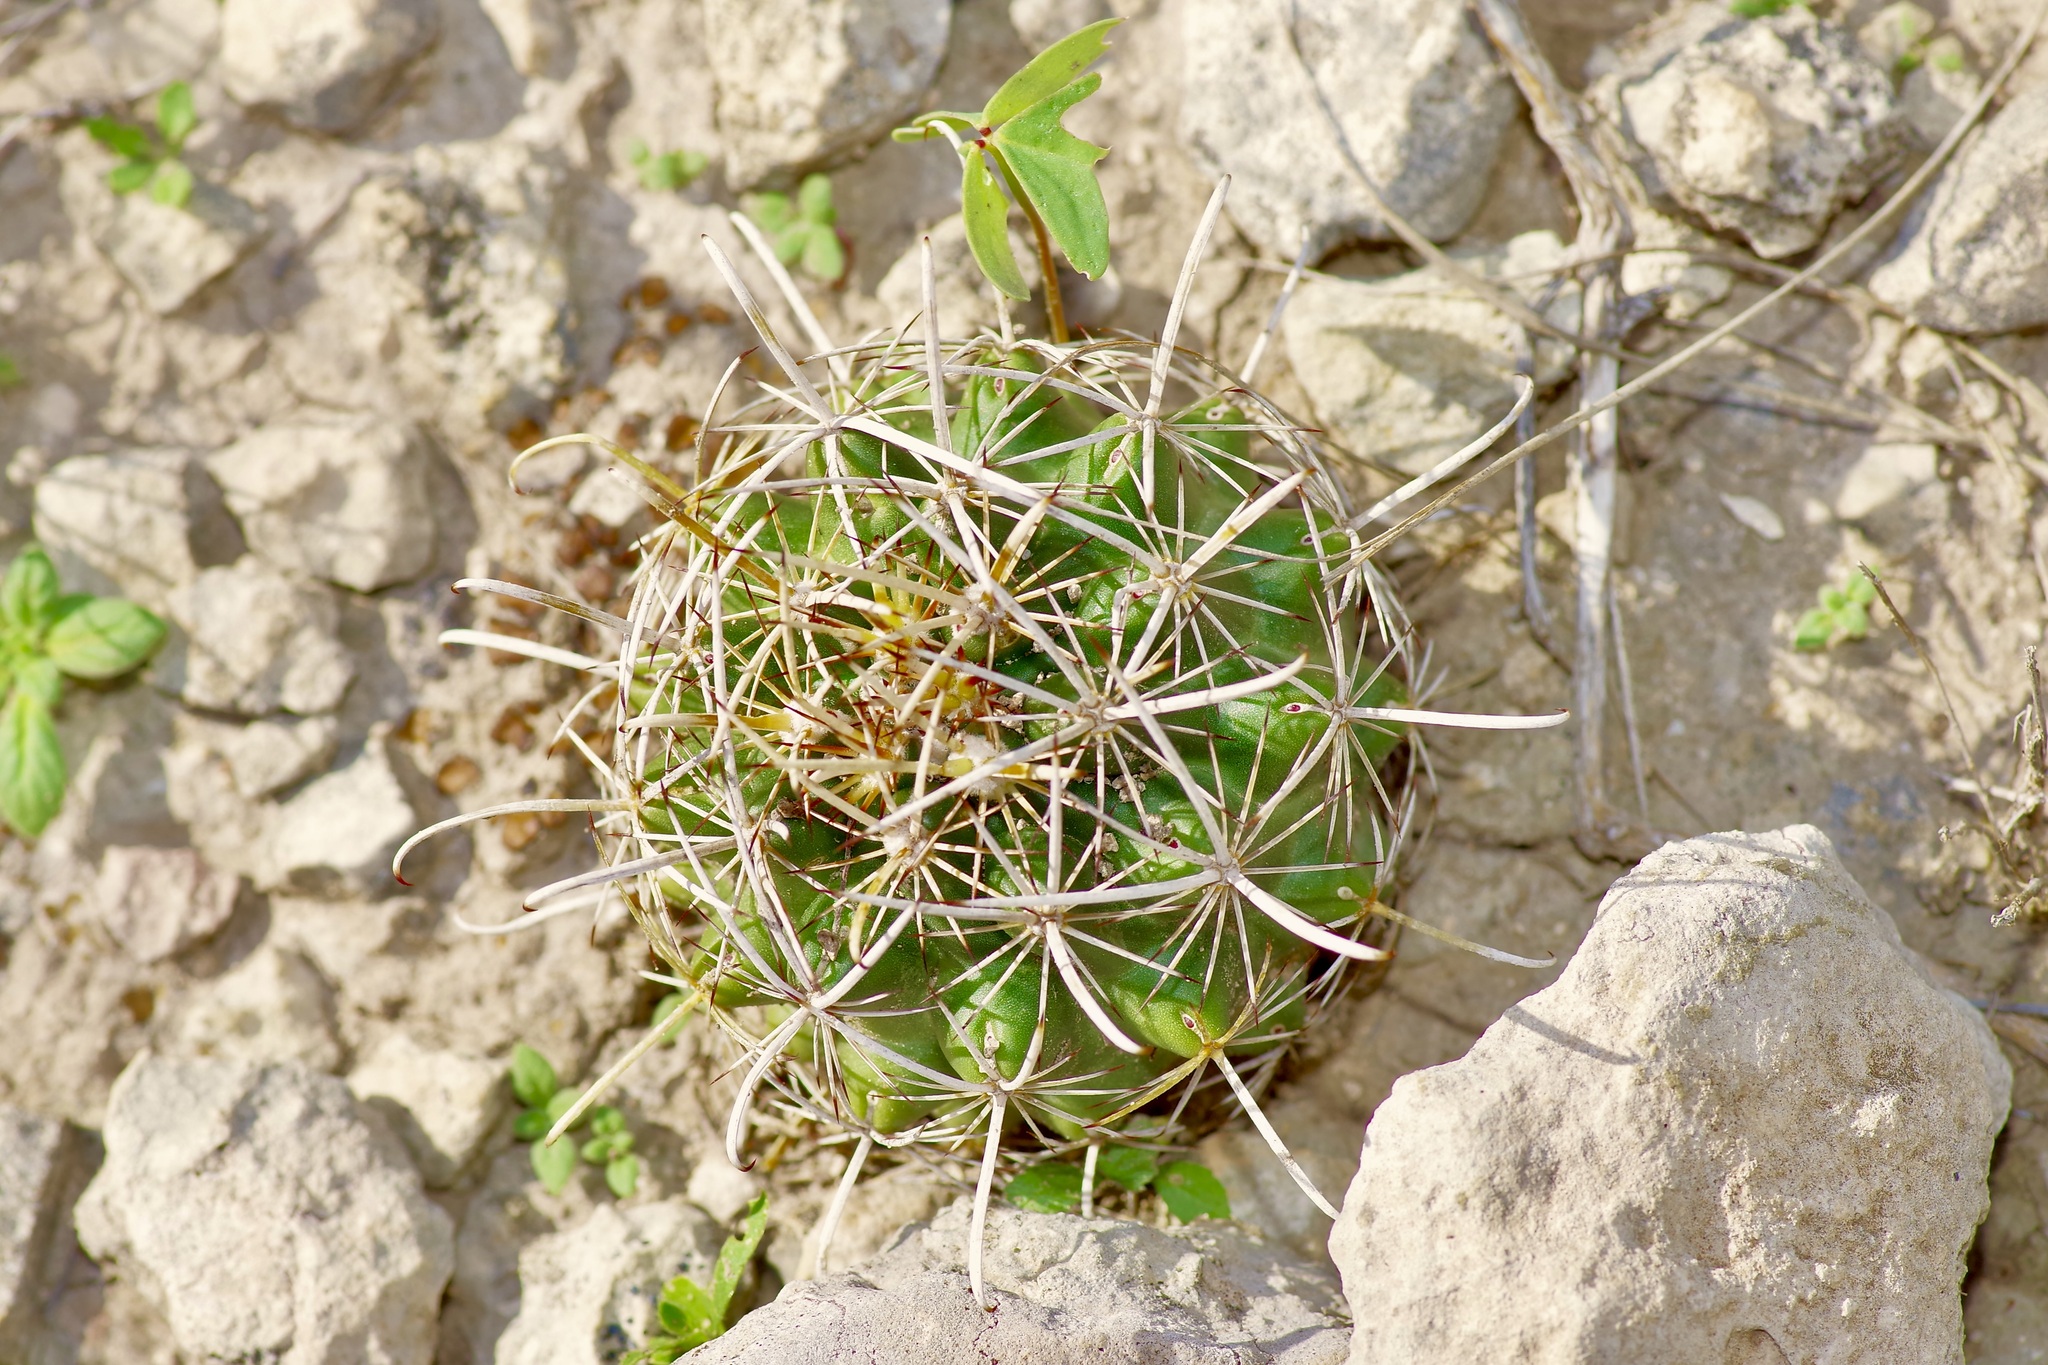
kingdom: Plantae
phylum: Tracheophyta
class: Magnoliopsida
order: Caryophyllales
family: Cactaceae
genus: Sclerocactus
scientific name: Sclerocactus brevihamatus
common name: Engelmann's fishhook cactus
